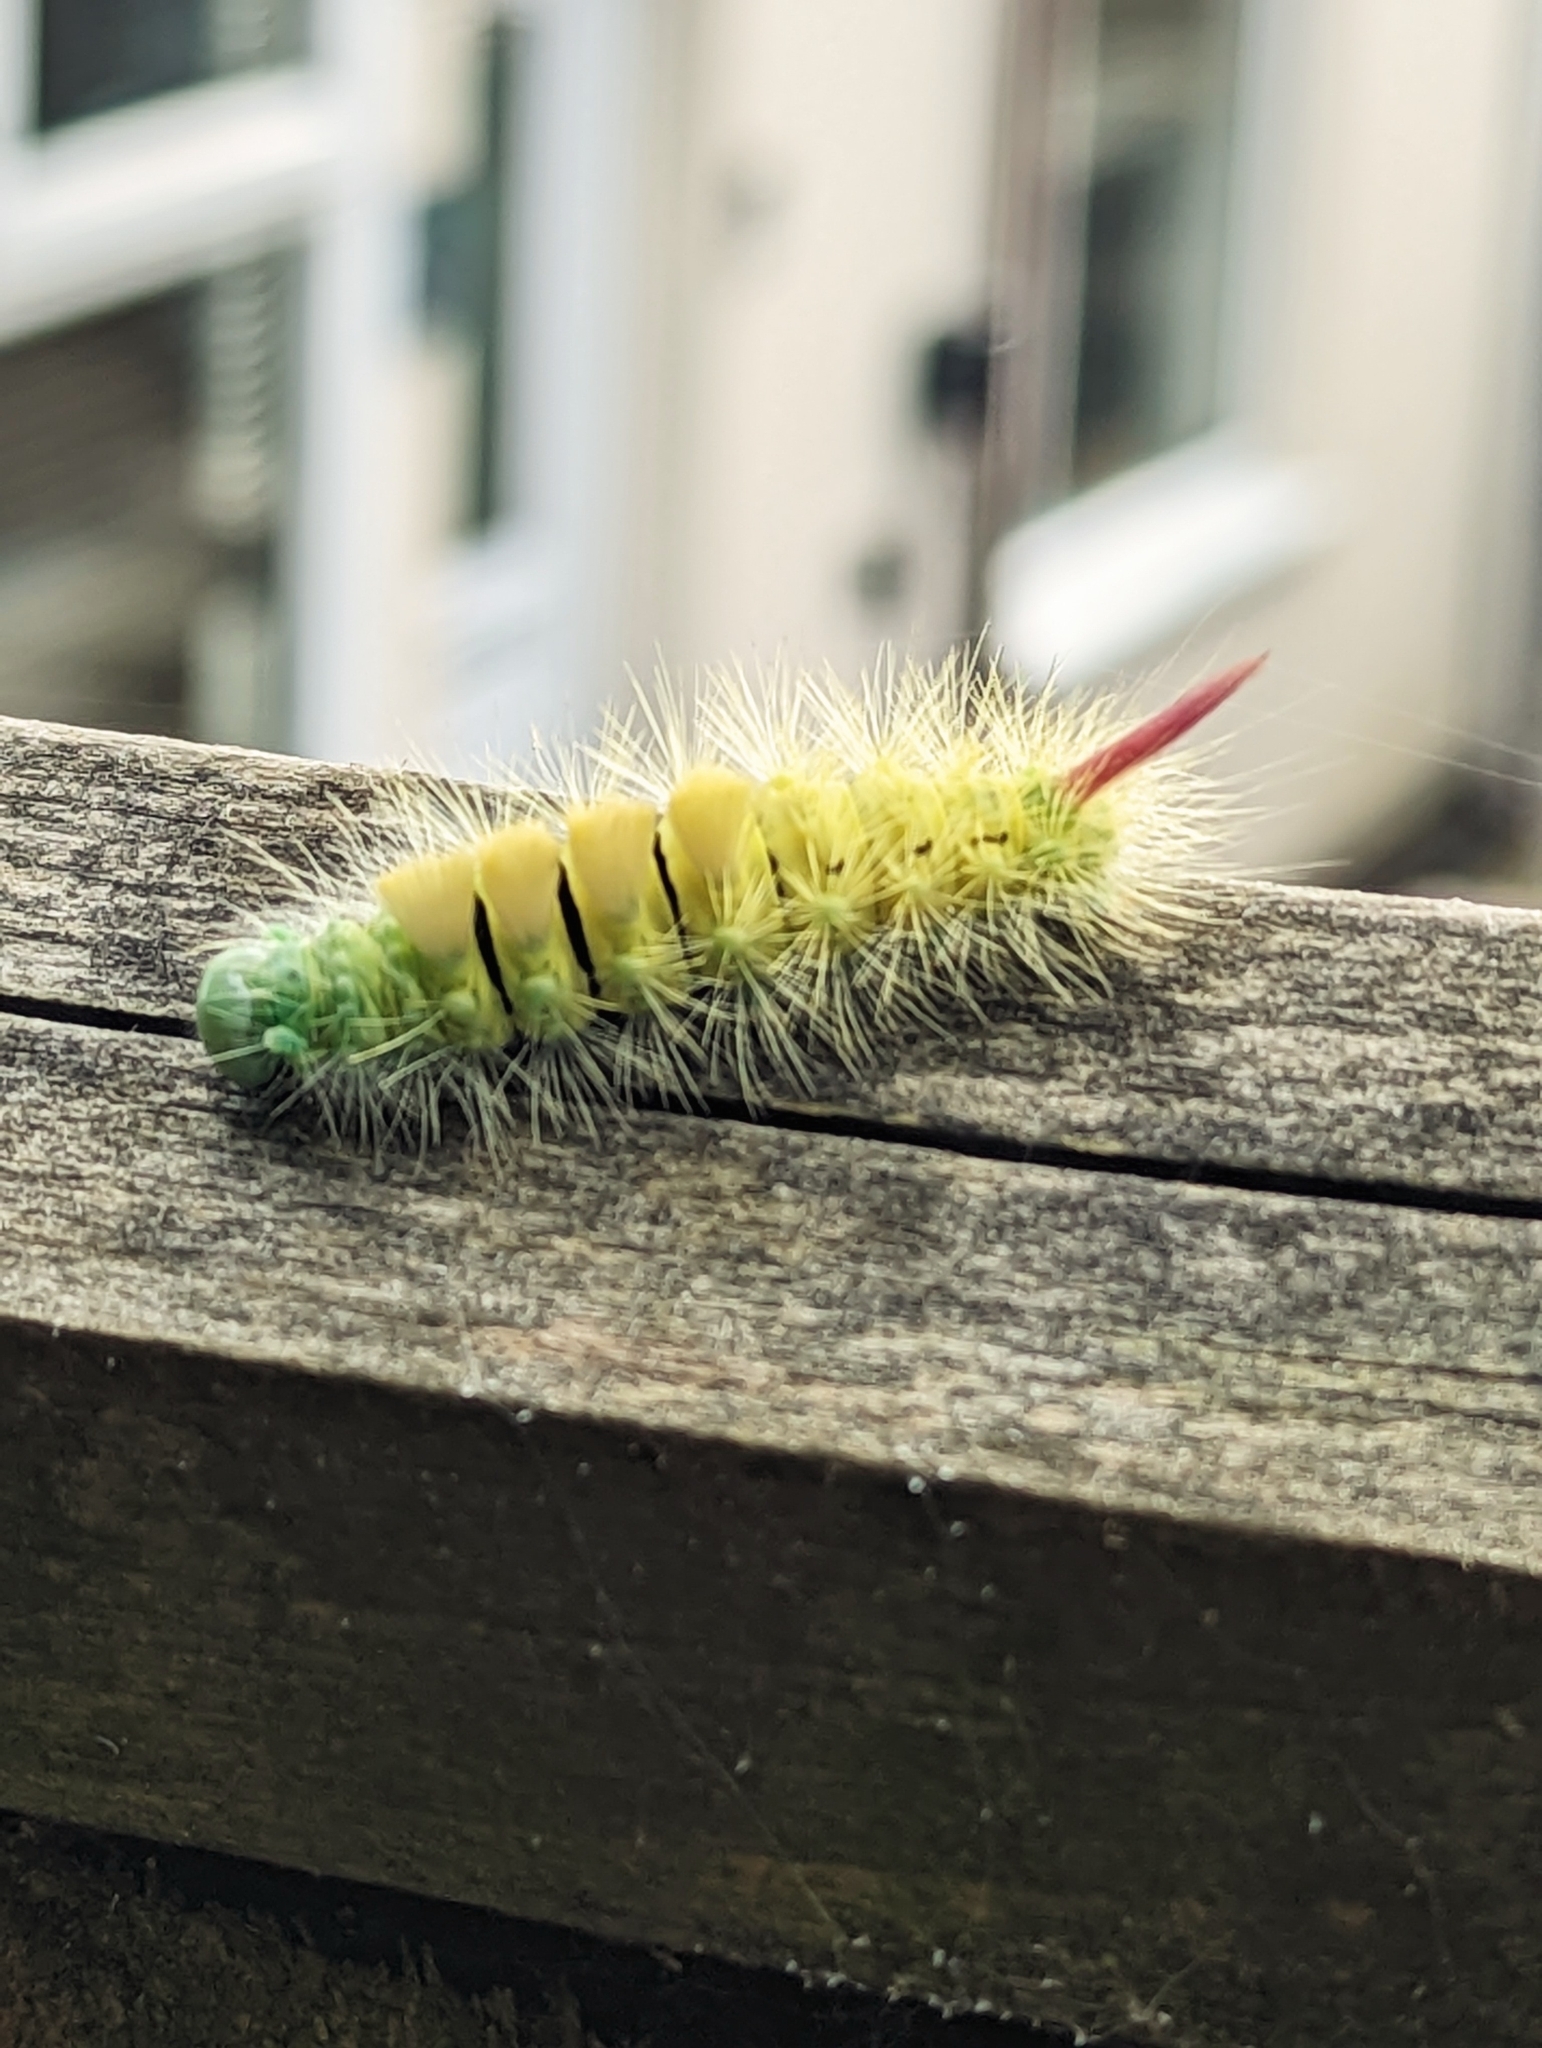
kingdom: Animalia
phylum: Arthropoda
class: Insecta
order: Lepidoptera
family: Erebidae
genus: Calliteara
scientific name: Calliteara pudibunda
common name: Pale tussock
